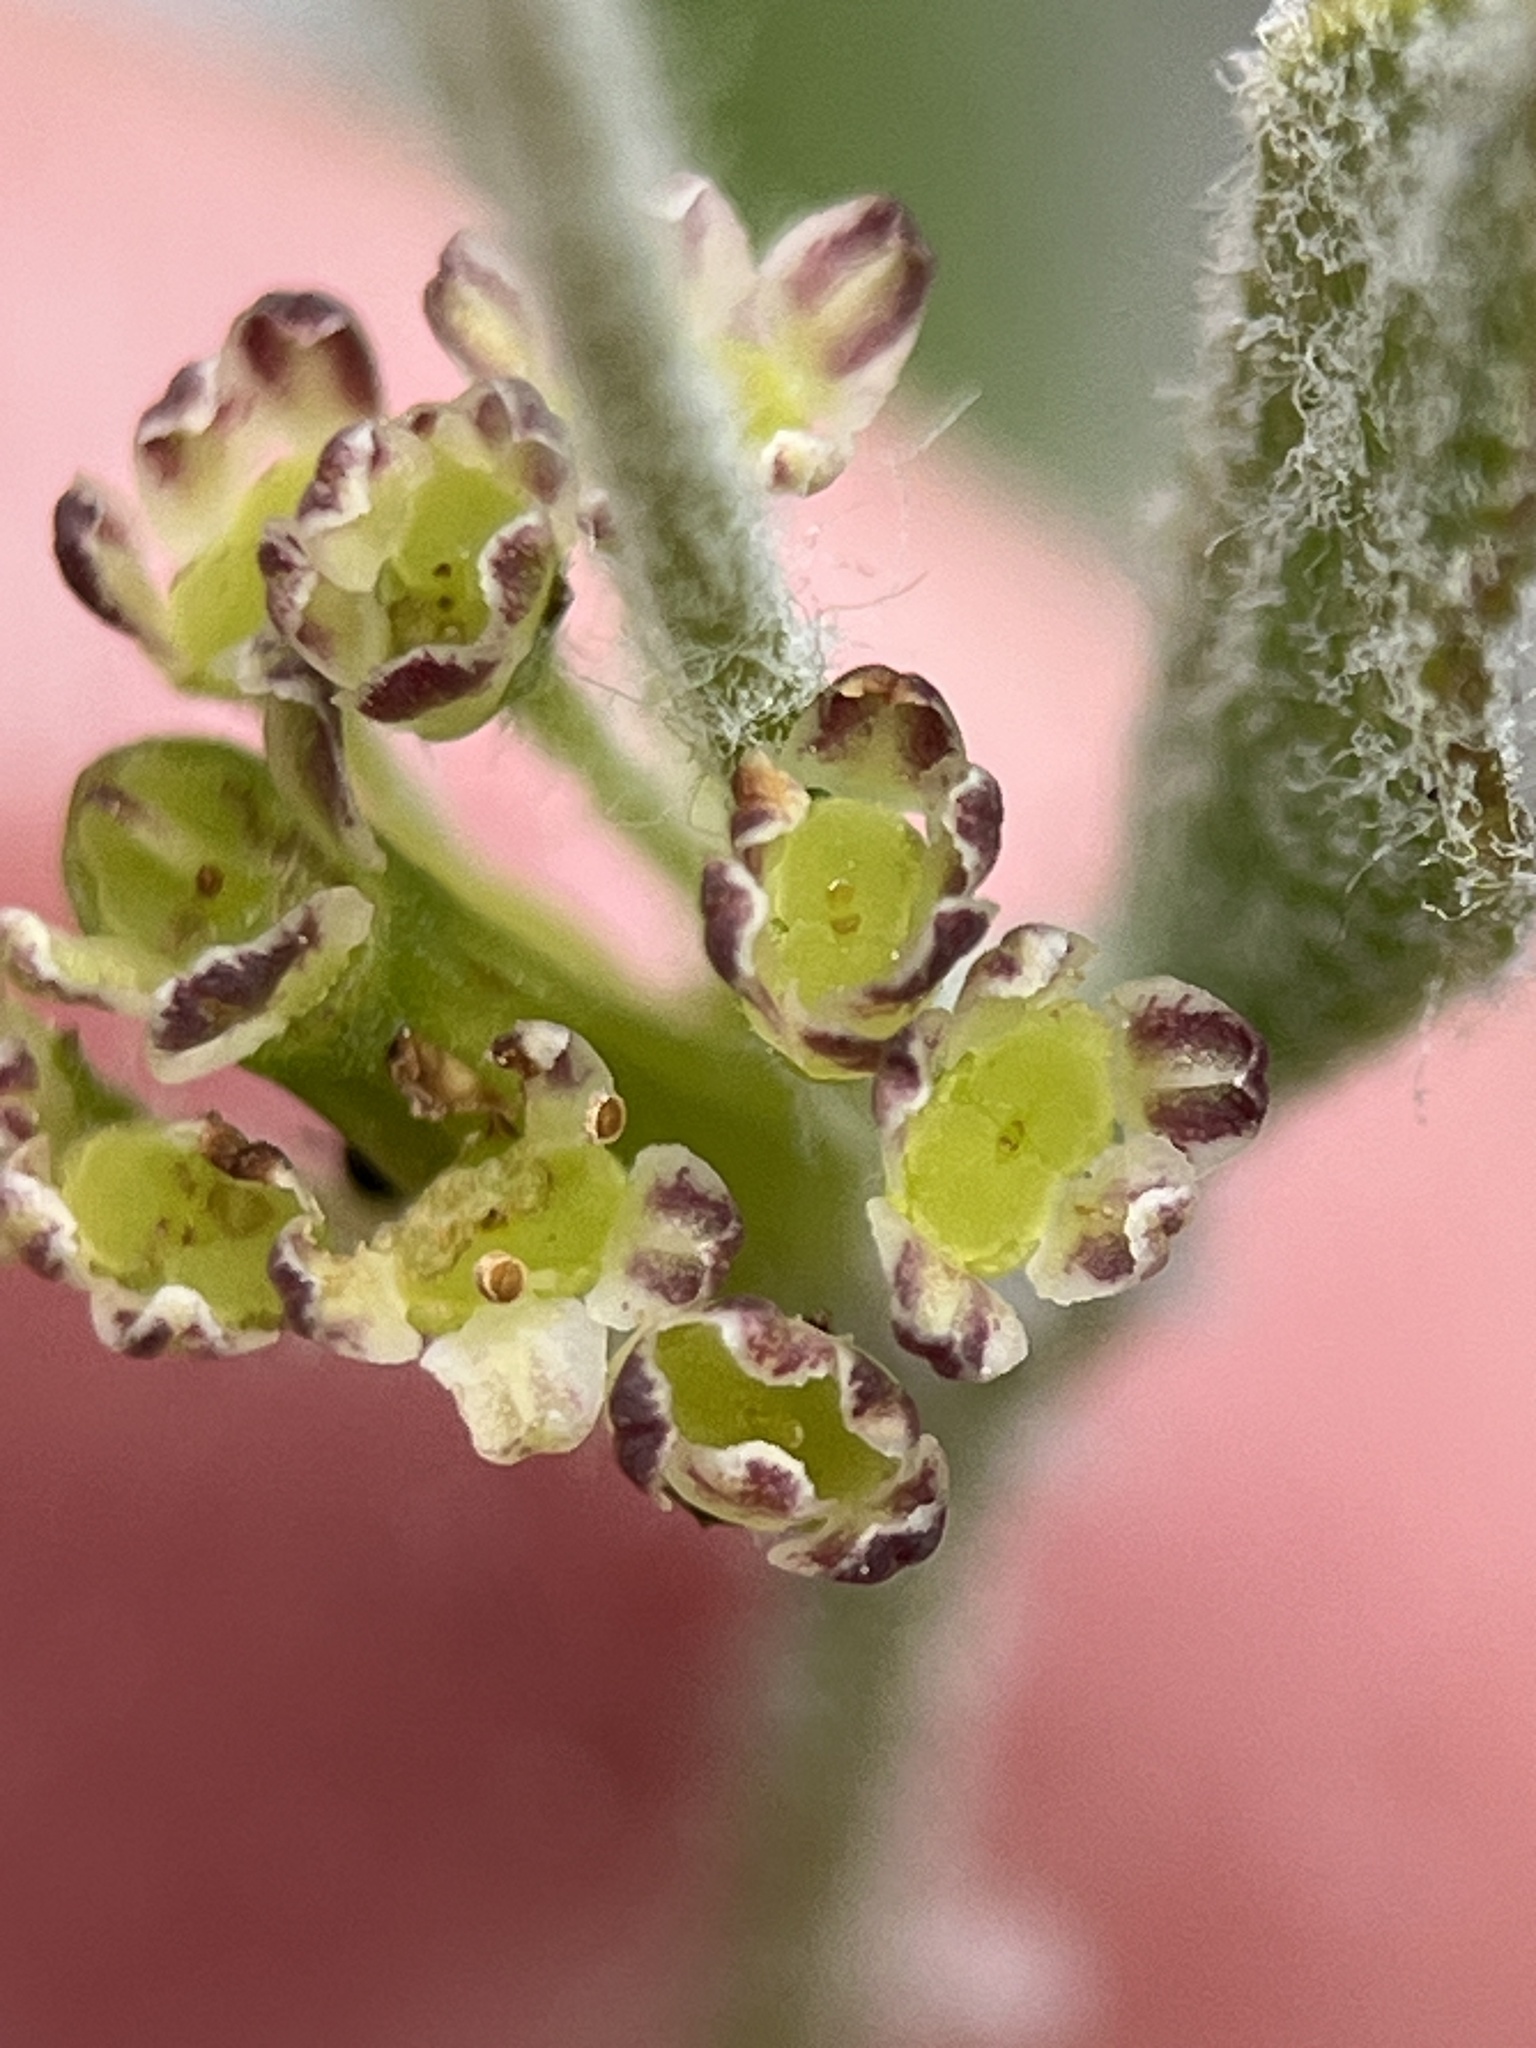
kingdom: Plantae
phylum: Tracheophyta
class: Magnoliopsida
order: Apiales
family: Apiaceae
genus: Centella
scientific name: Centella brachycarpa
